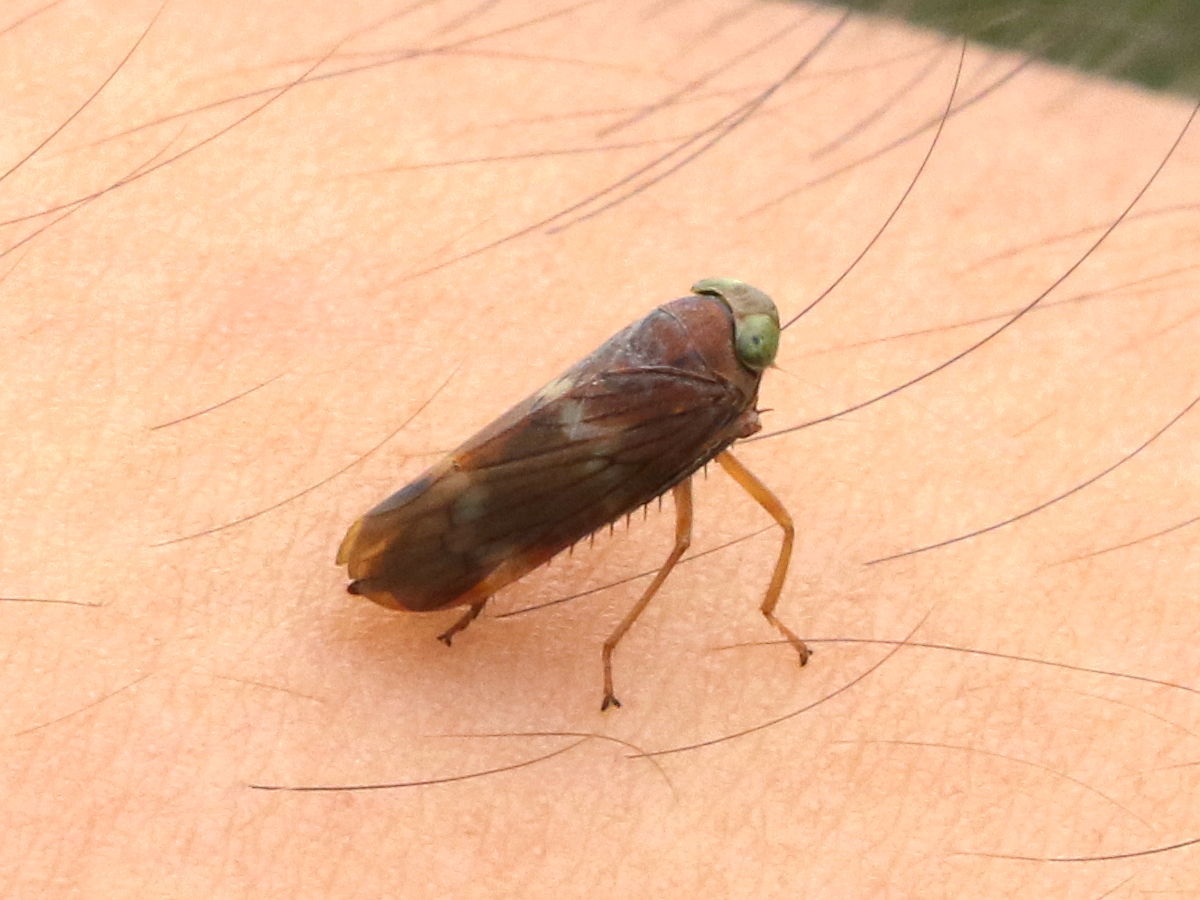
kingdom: Animalia
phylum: Arthropoda
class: Insecta
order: Hemiptera
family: Cicadellidae
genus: Jikradia
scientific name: Jikradia olitoria
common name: Coppery leafhopper
